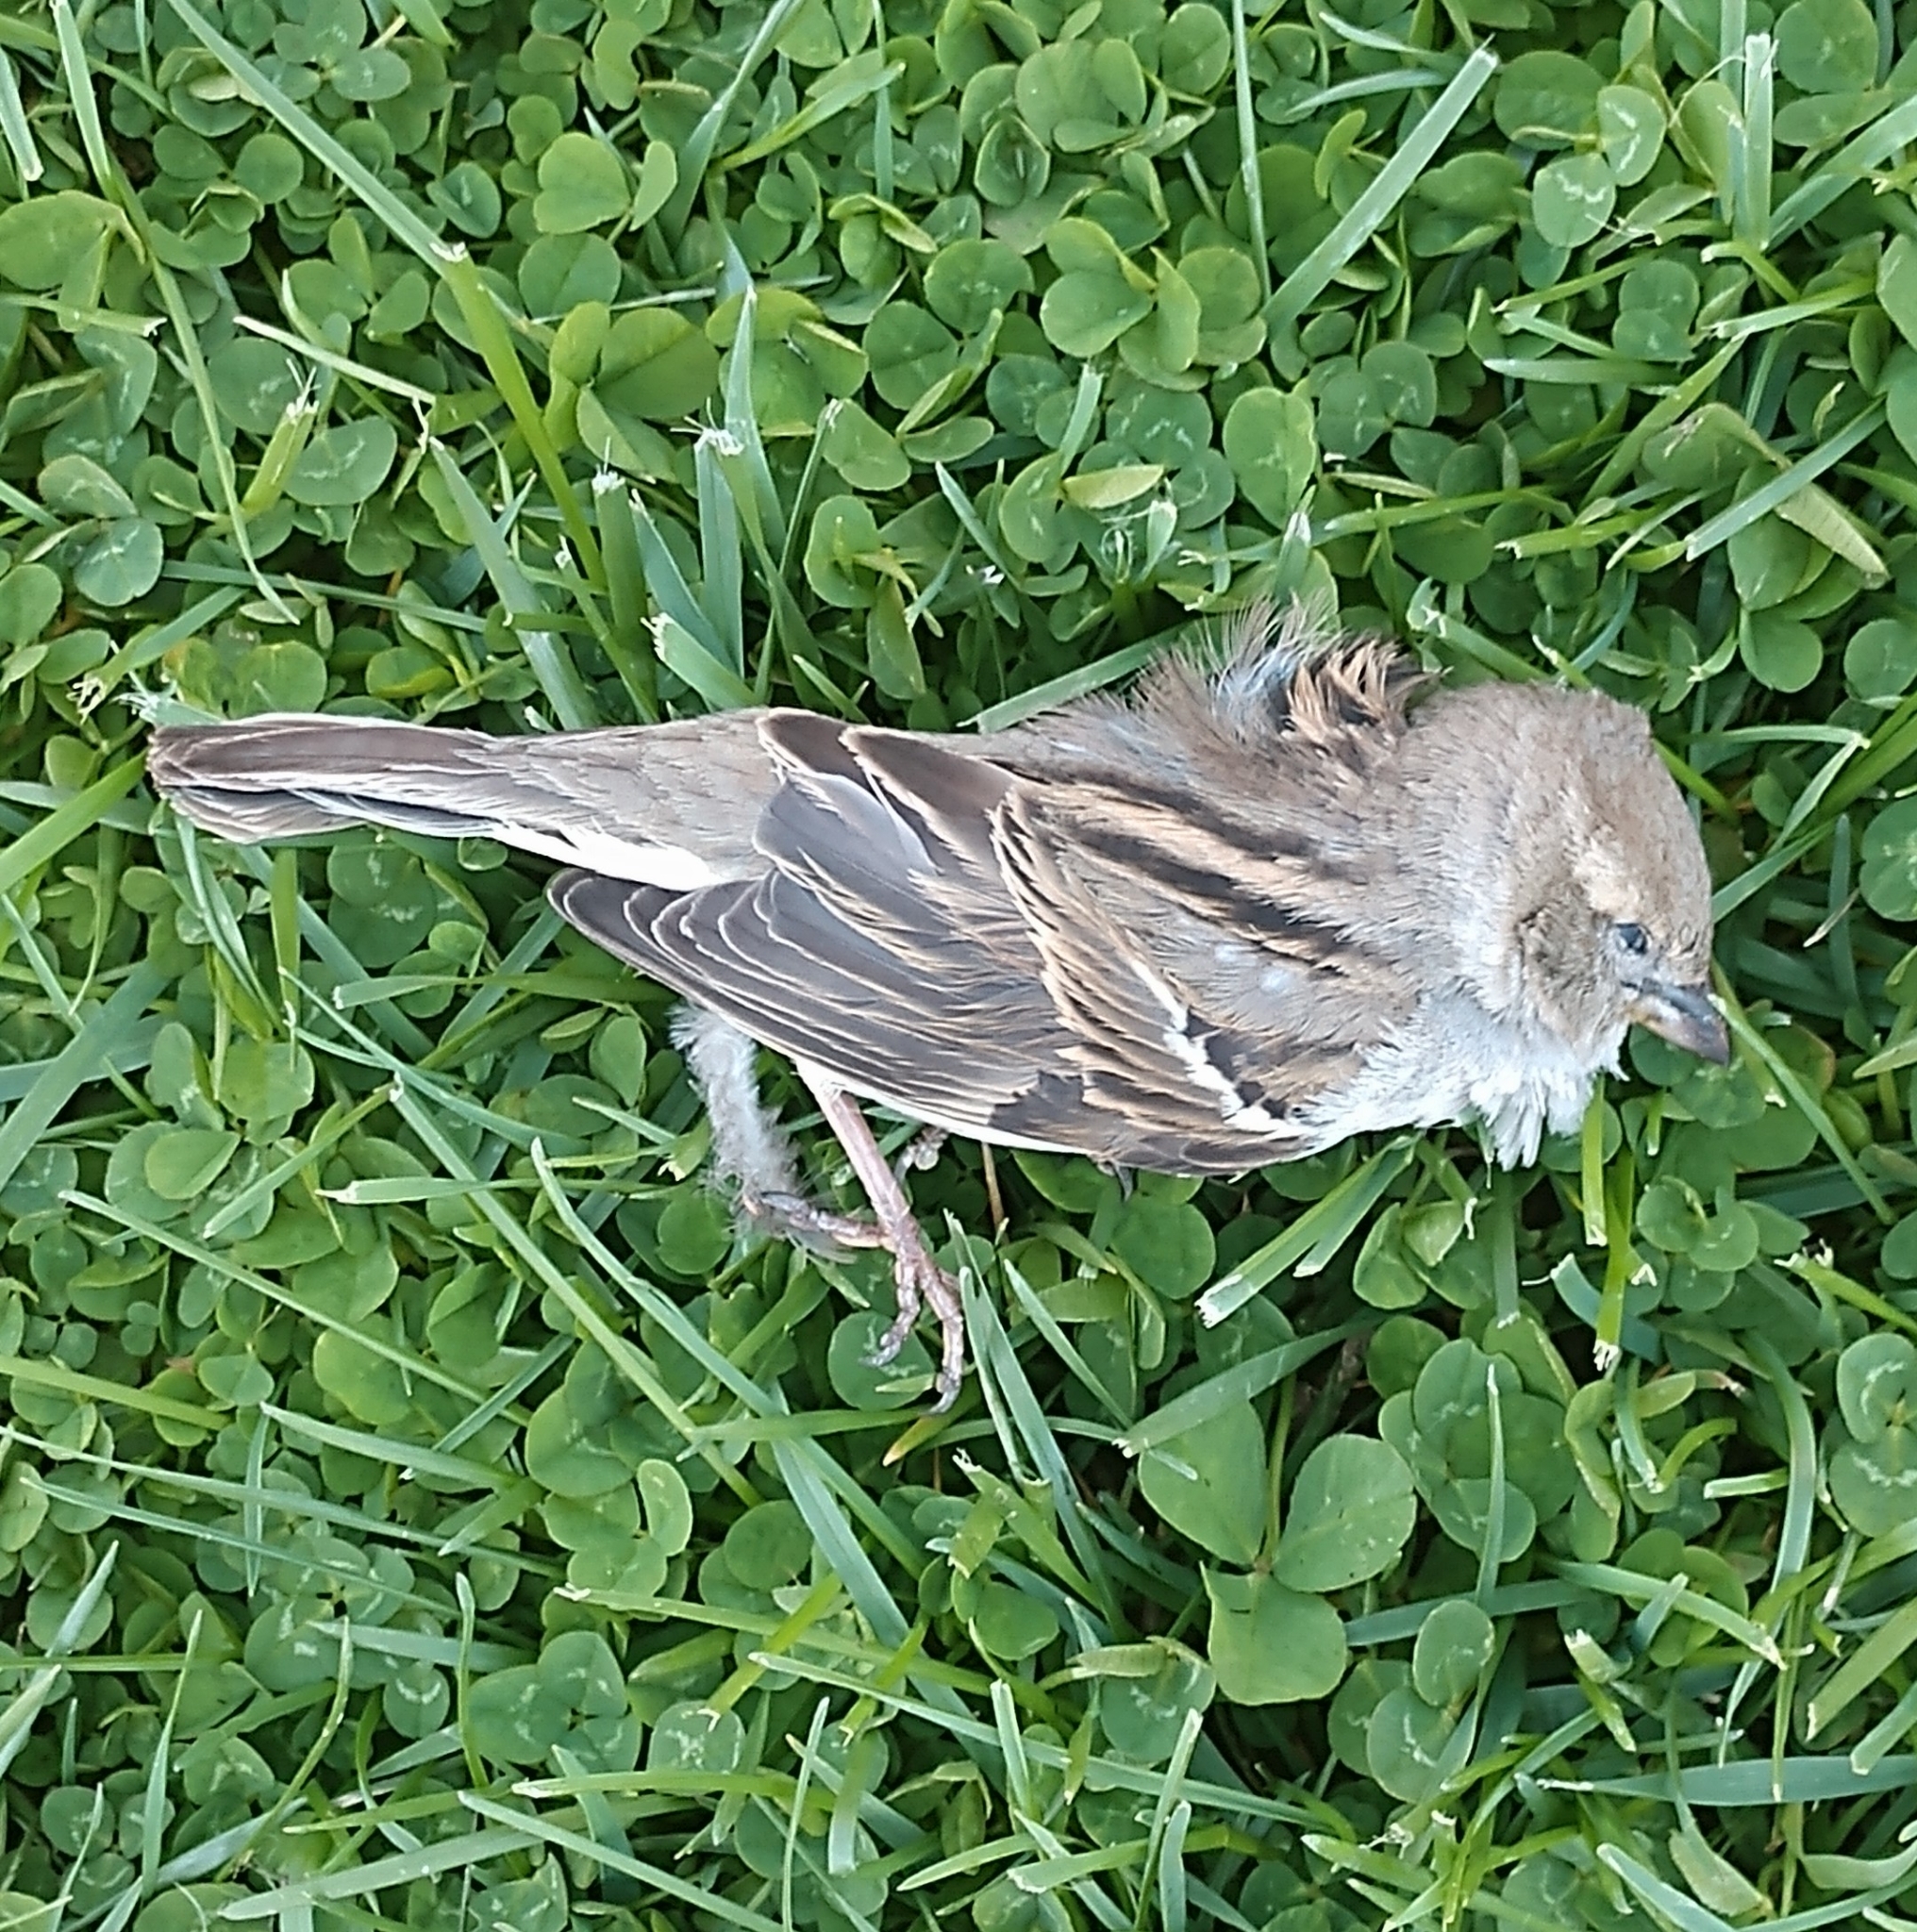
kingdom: Animalia
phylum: Chordata
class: Aves
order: Passeriformes
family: Passeridae
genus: Passer
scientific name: Passer domesticus
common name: House sparrow
